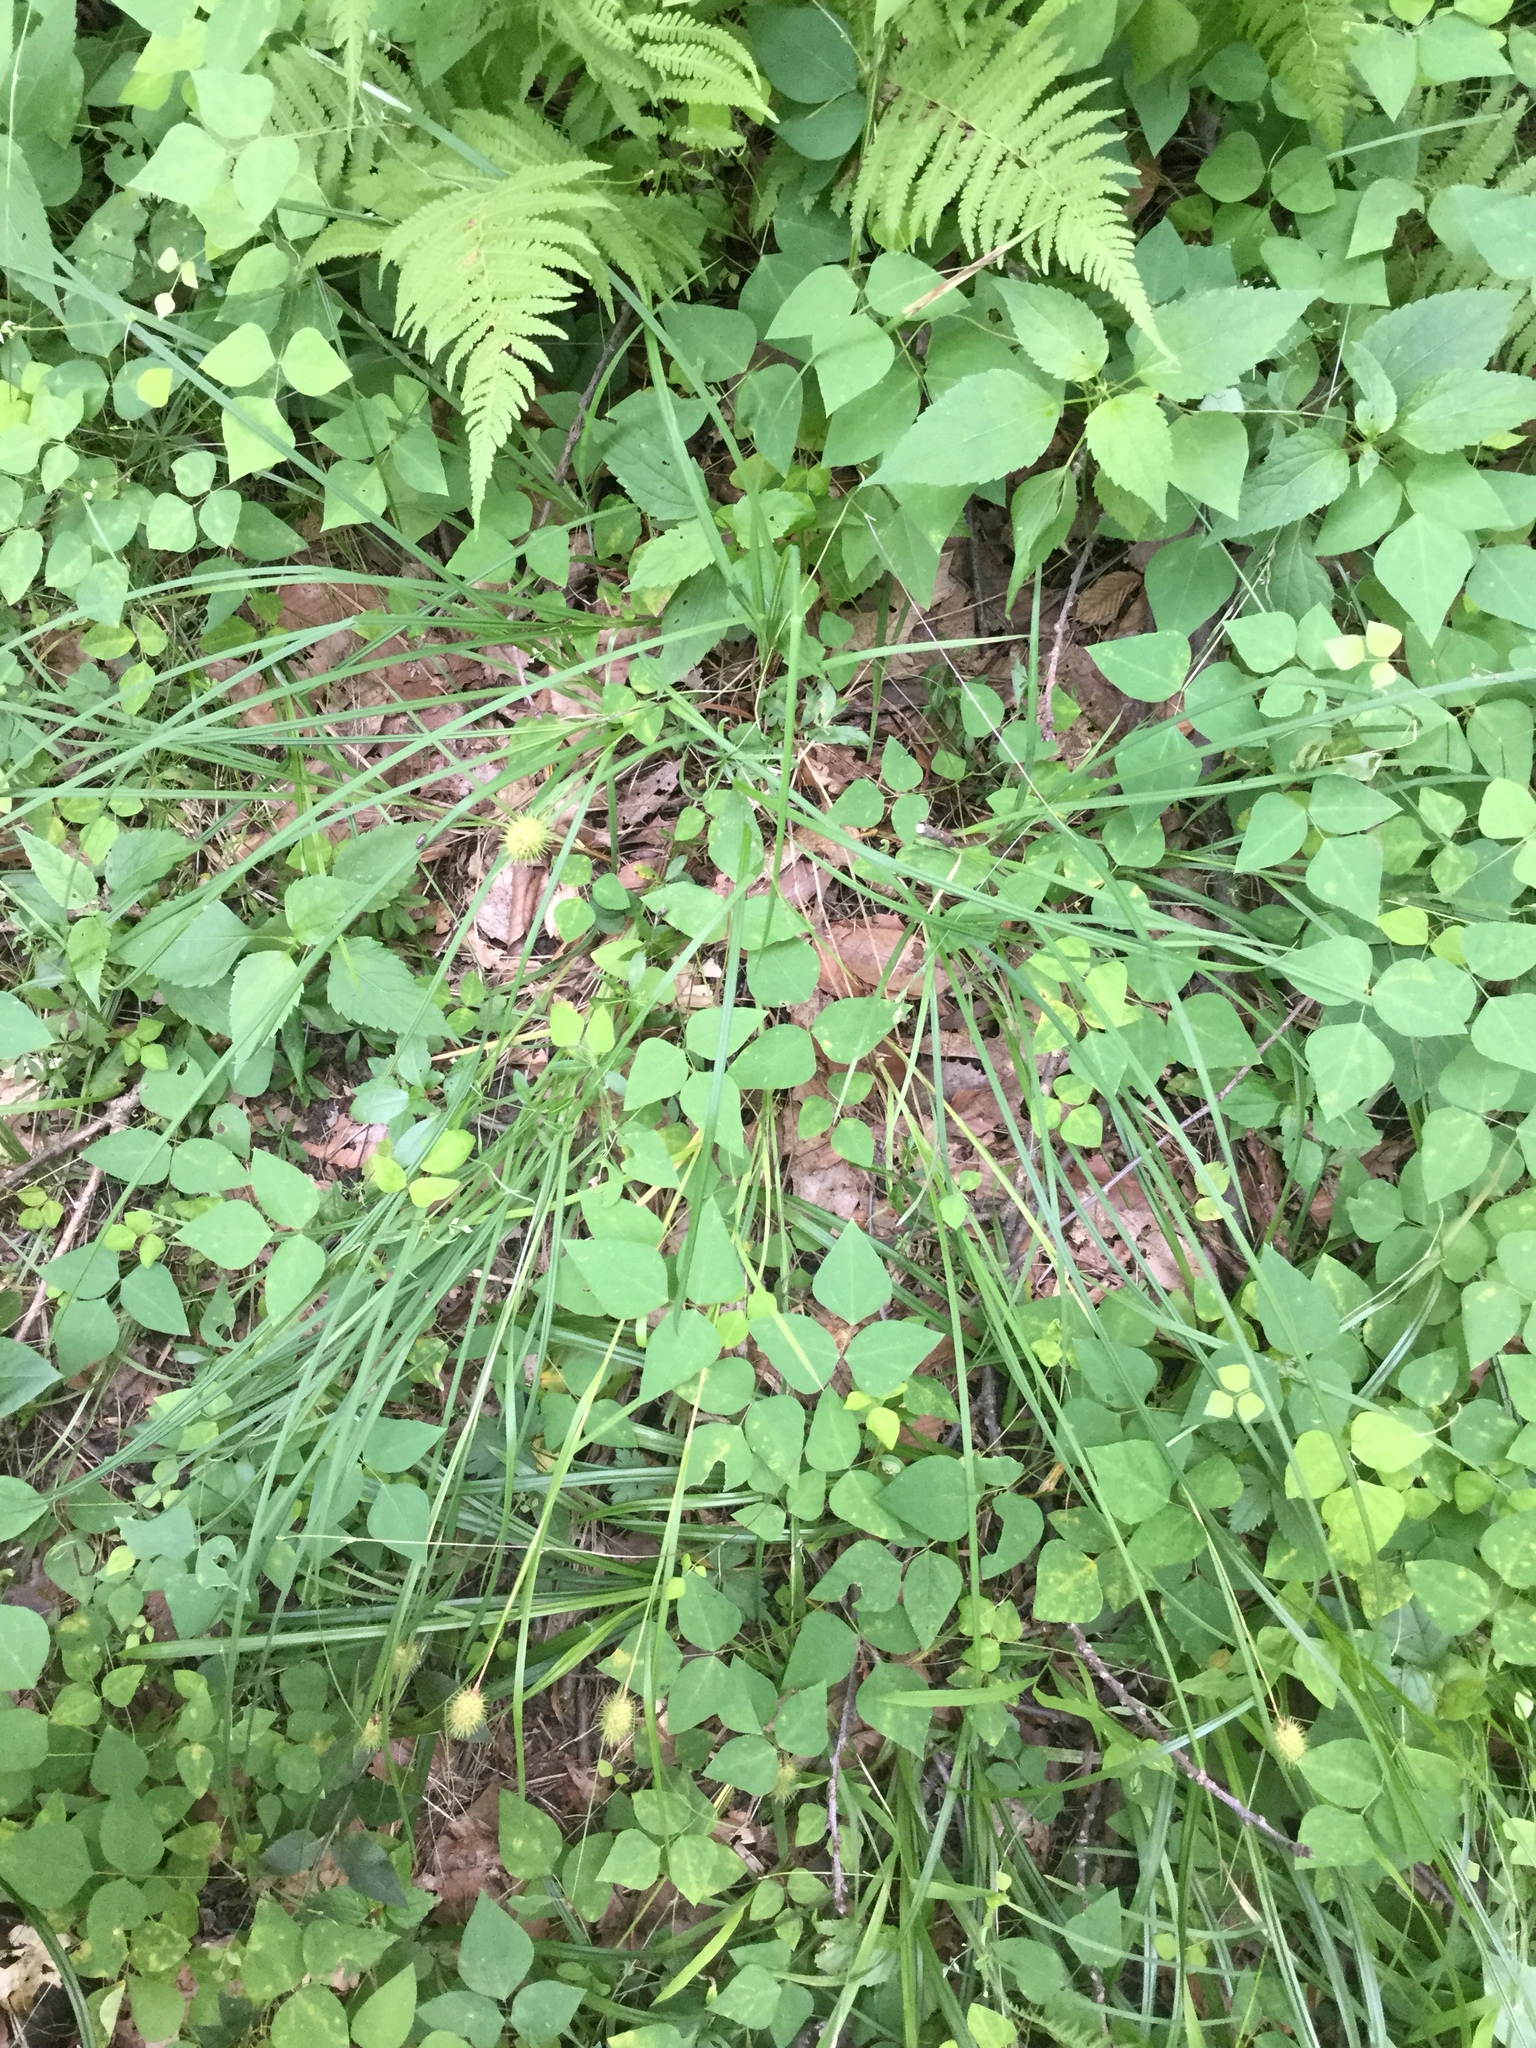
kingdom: Plantae
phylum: Tracheophyta
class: Liliopsida
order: Poales
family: Cyperaceae
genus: Carex
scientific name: Carex squarrosa
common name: Narrow-leaved cattail sedge
